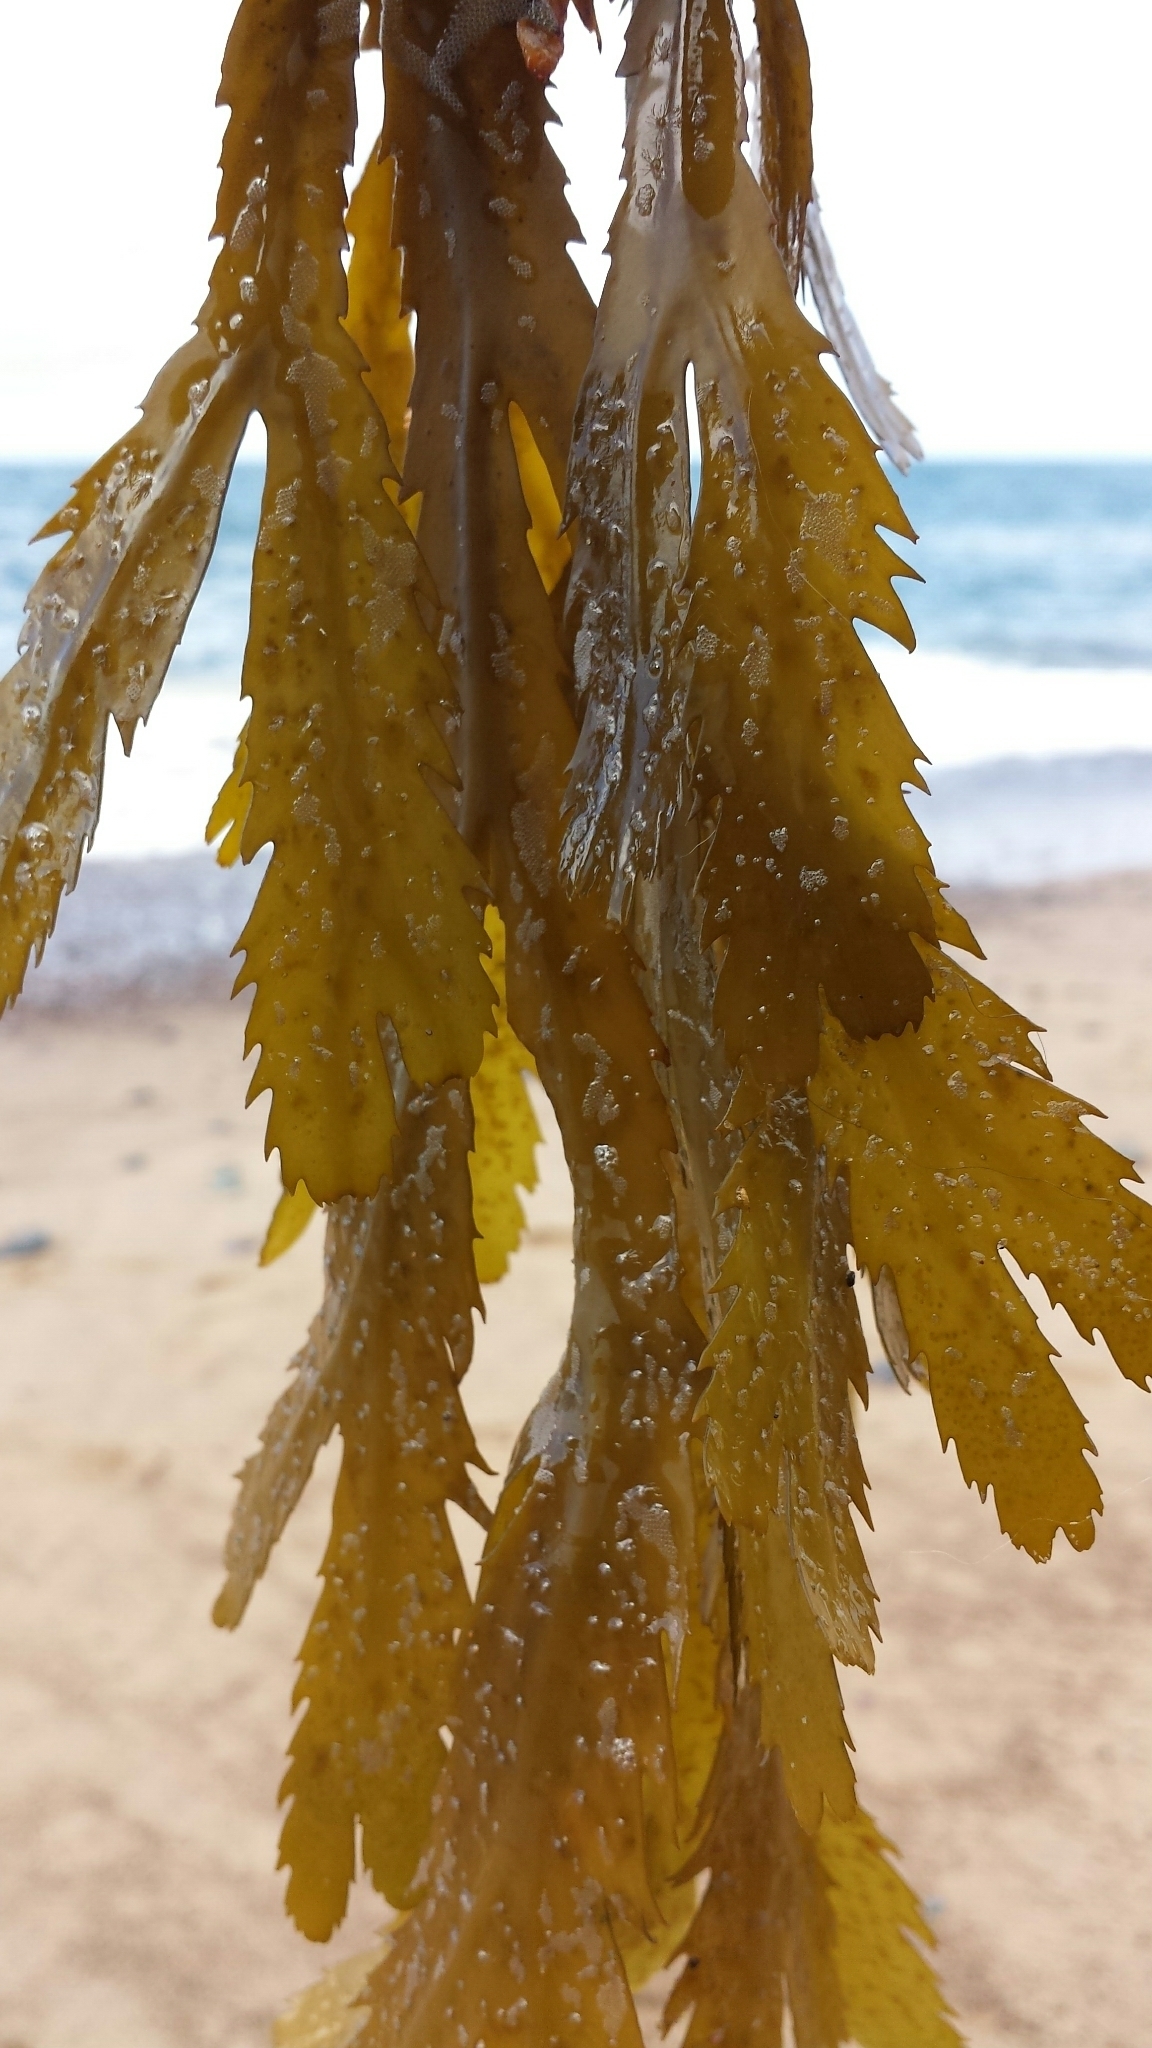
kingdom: Chromista
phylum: Ochrophyta
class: Phaeophyceae
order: Fucales
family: Fucaceae
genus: Fucus
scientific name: Fucus serratus
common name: Toothed wrack
